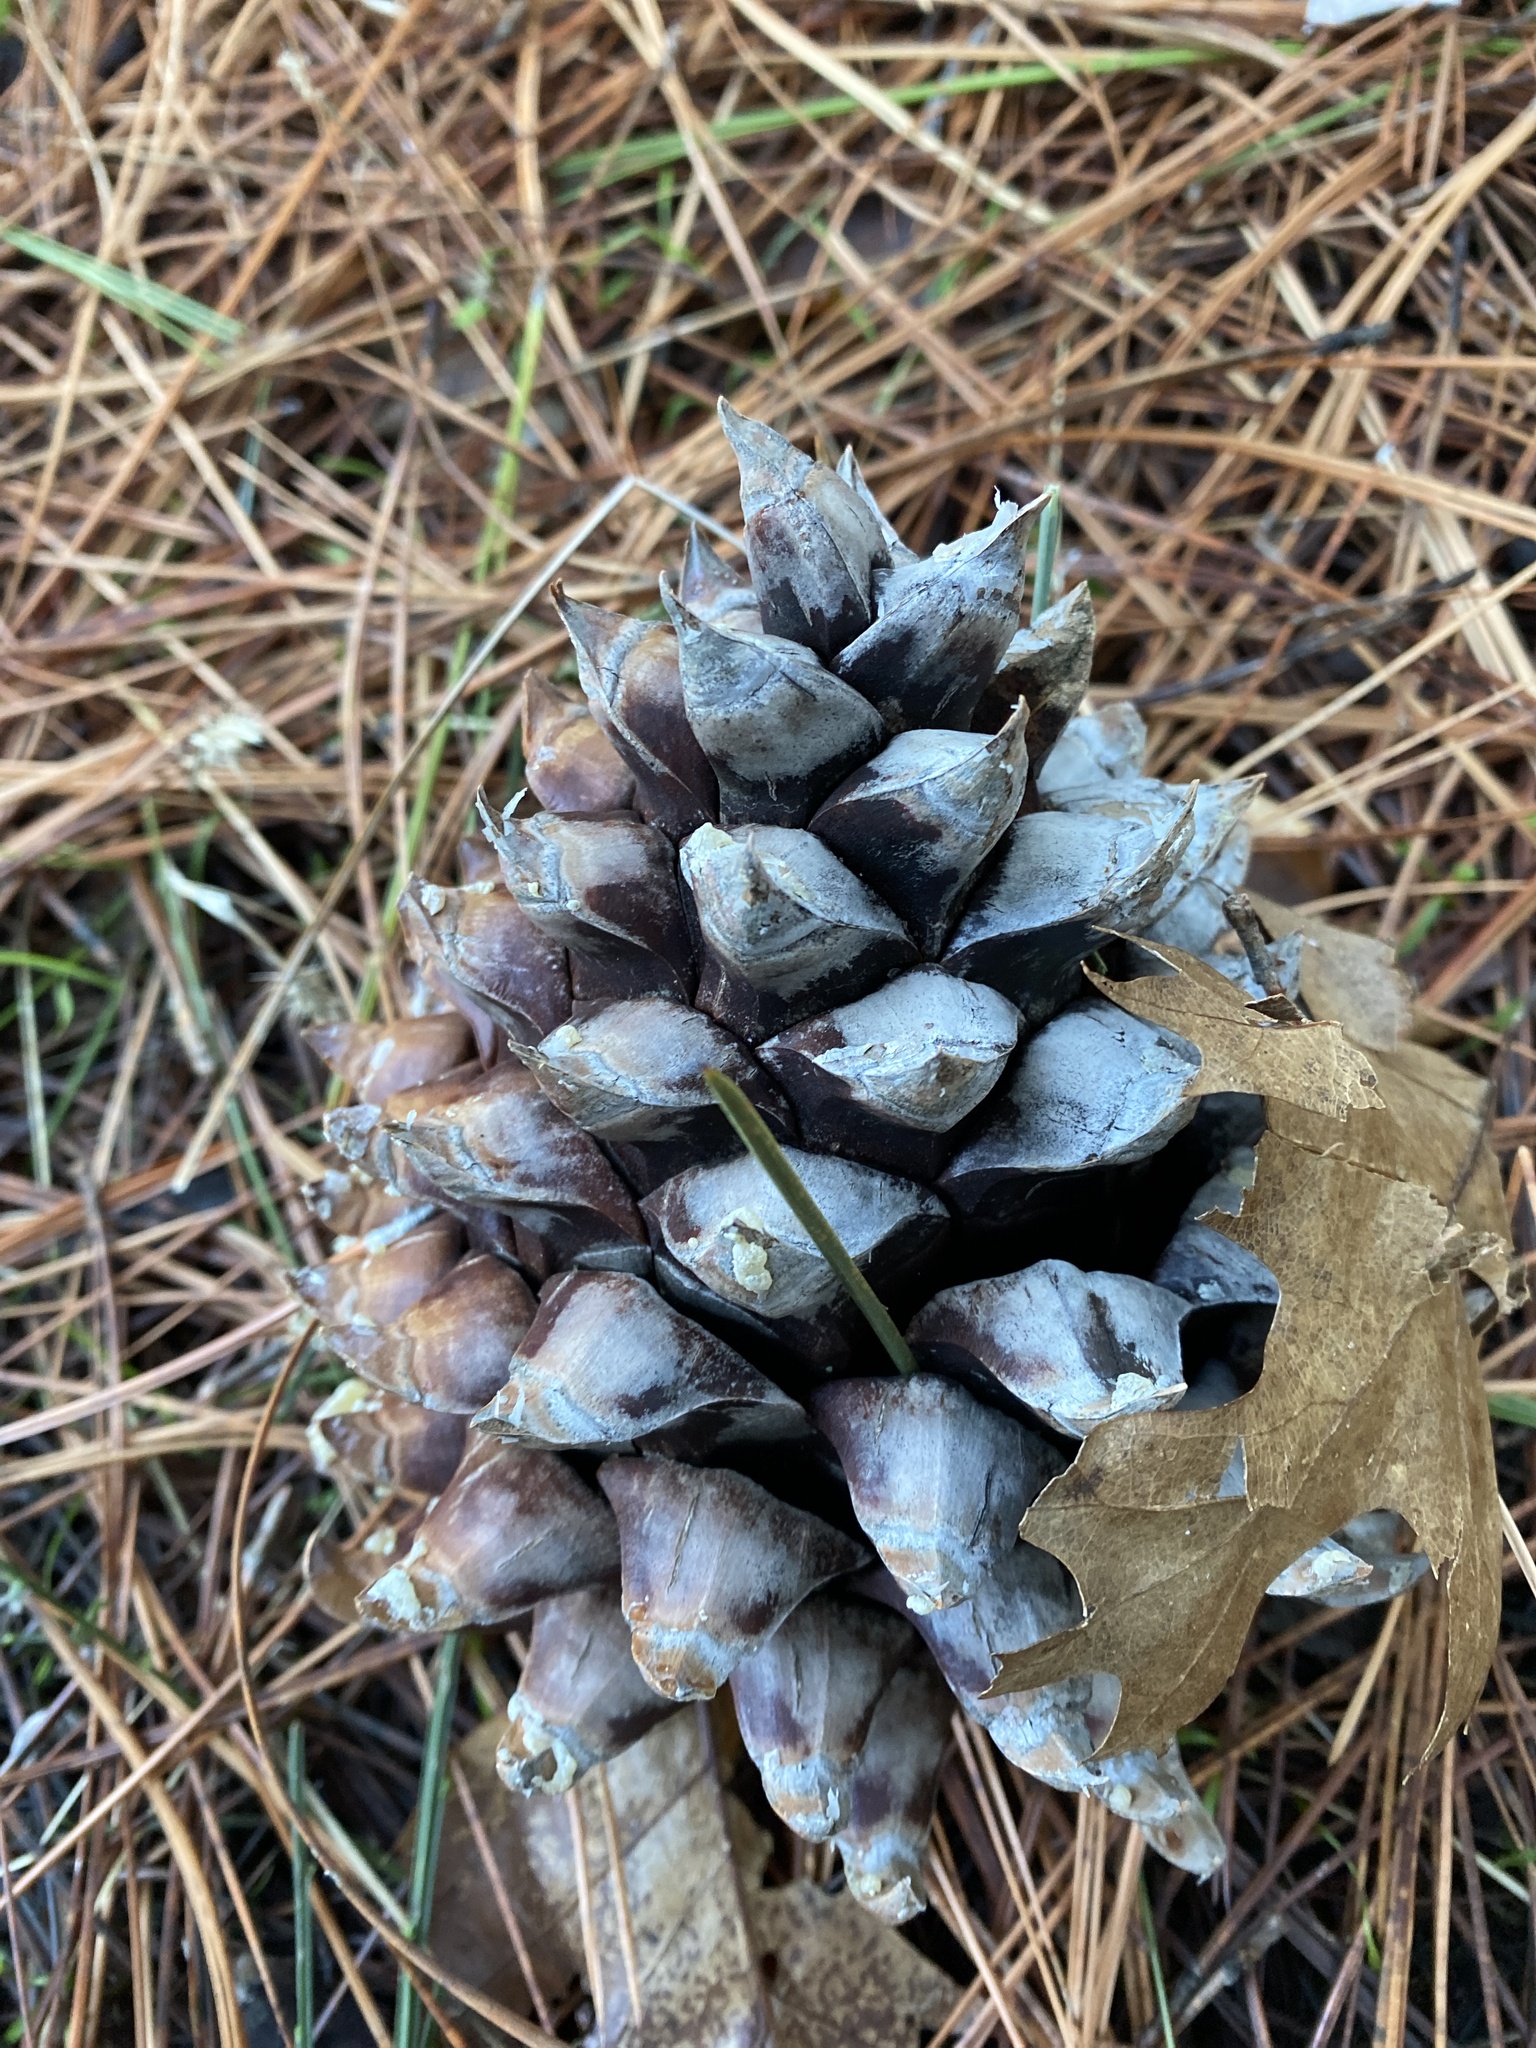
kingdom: Plantae
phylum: Tracheophyta
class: Pinopsida
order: Pinales
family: Pinaceae
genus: Pinus
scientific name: Pinus sabiniana
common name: Bull pine
